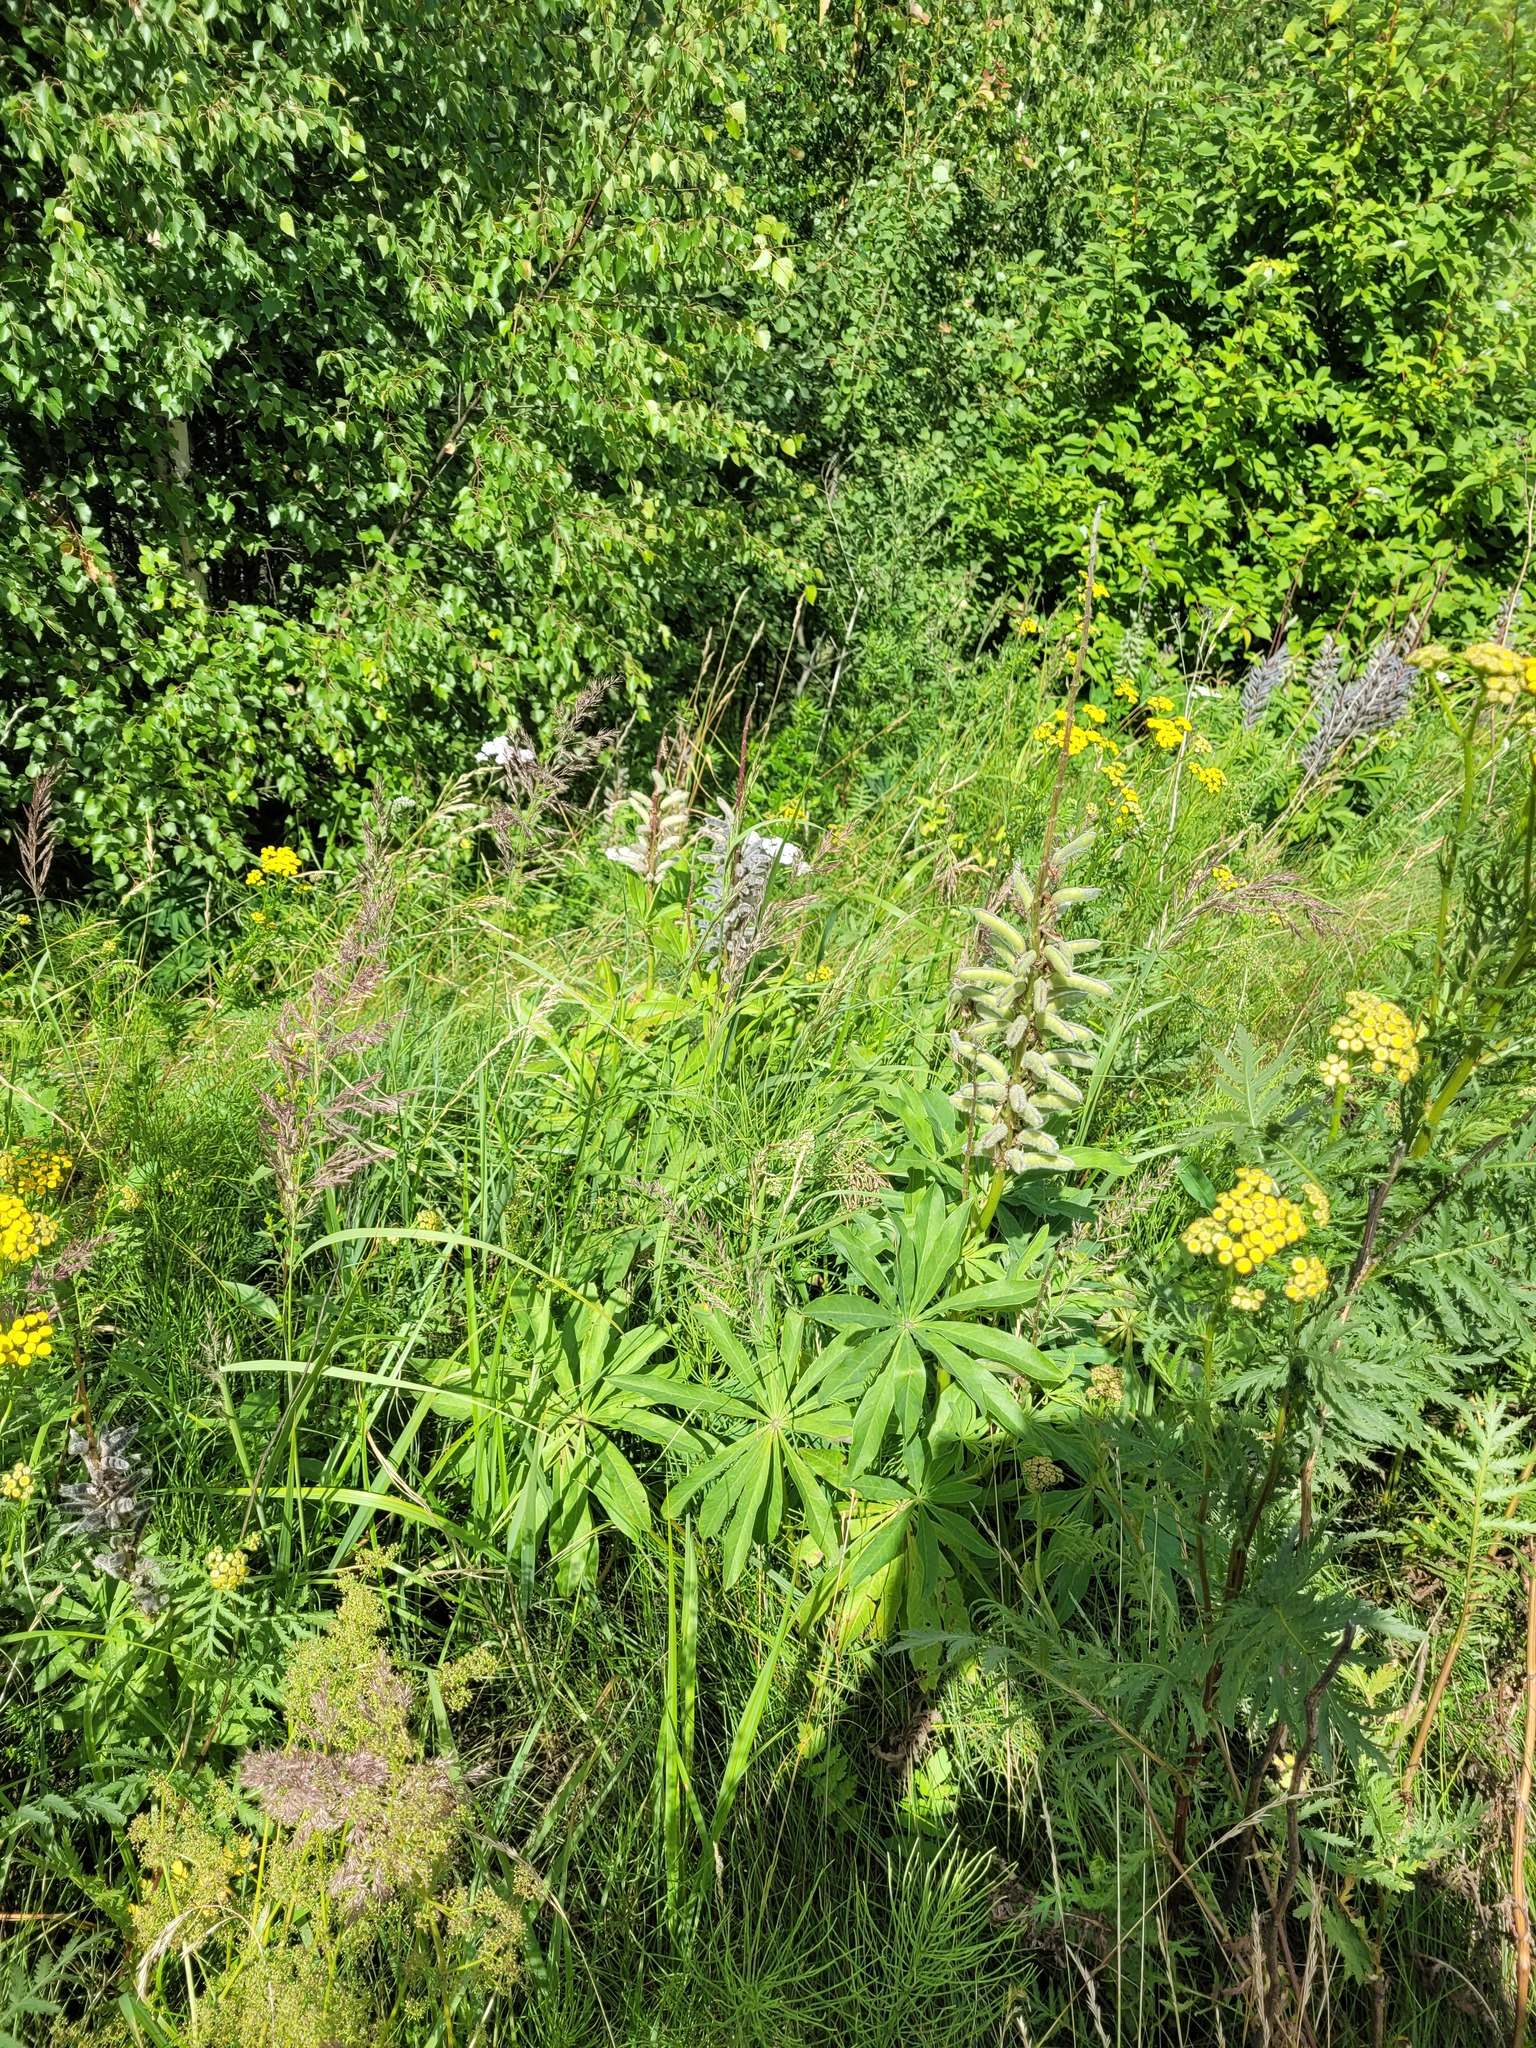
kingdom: Plantae
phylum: Tracheophyta
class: Magnoliopsida
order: Fabales
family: Fabaceae
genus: Lupinus
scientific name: Lupinus polyphyllus
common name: Garden lupin
